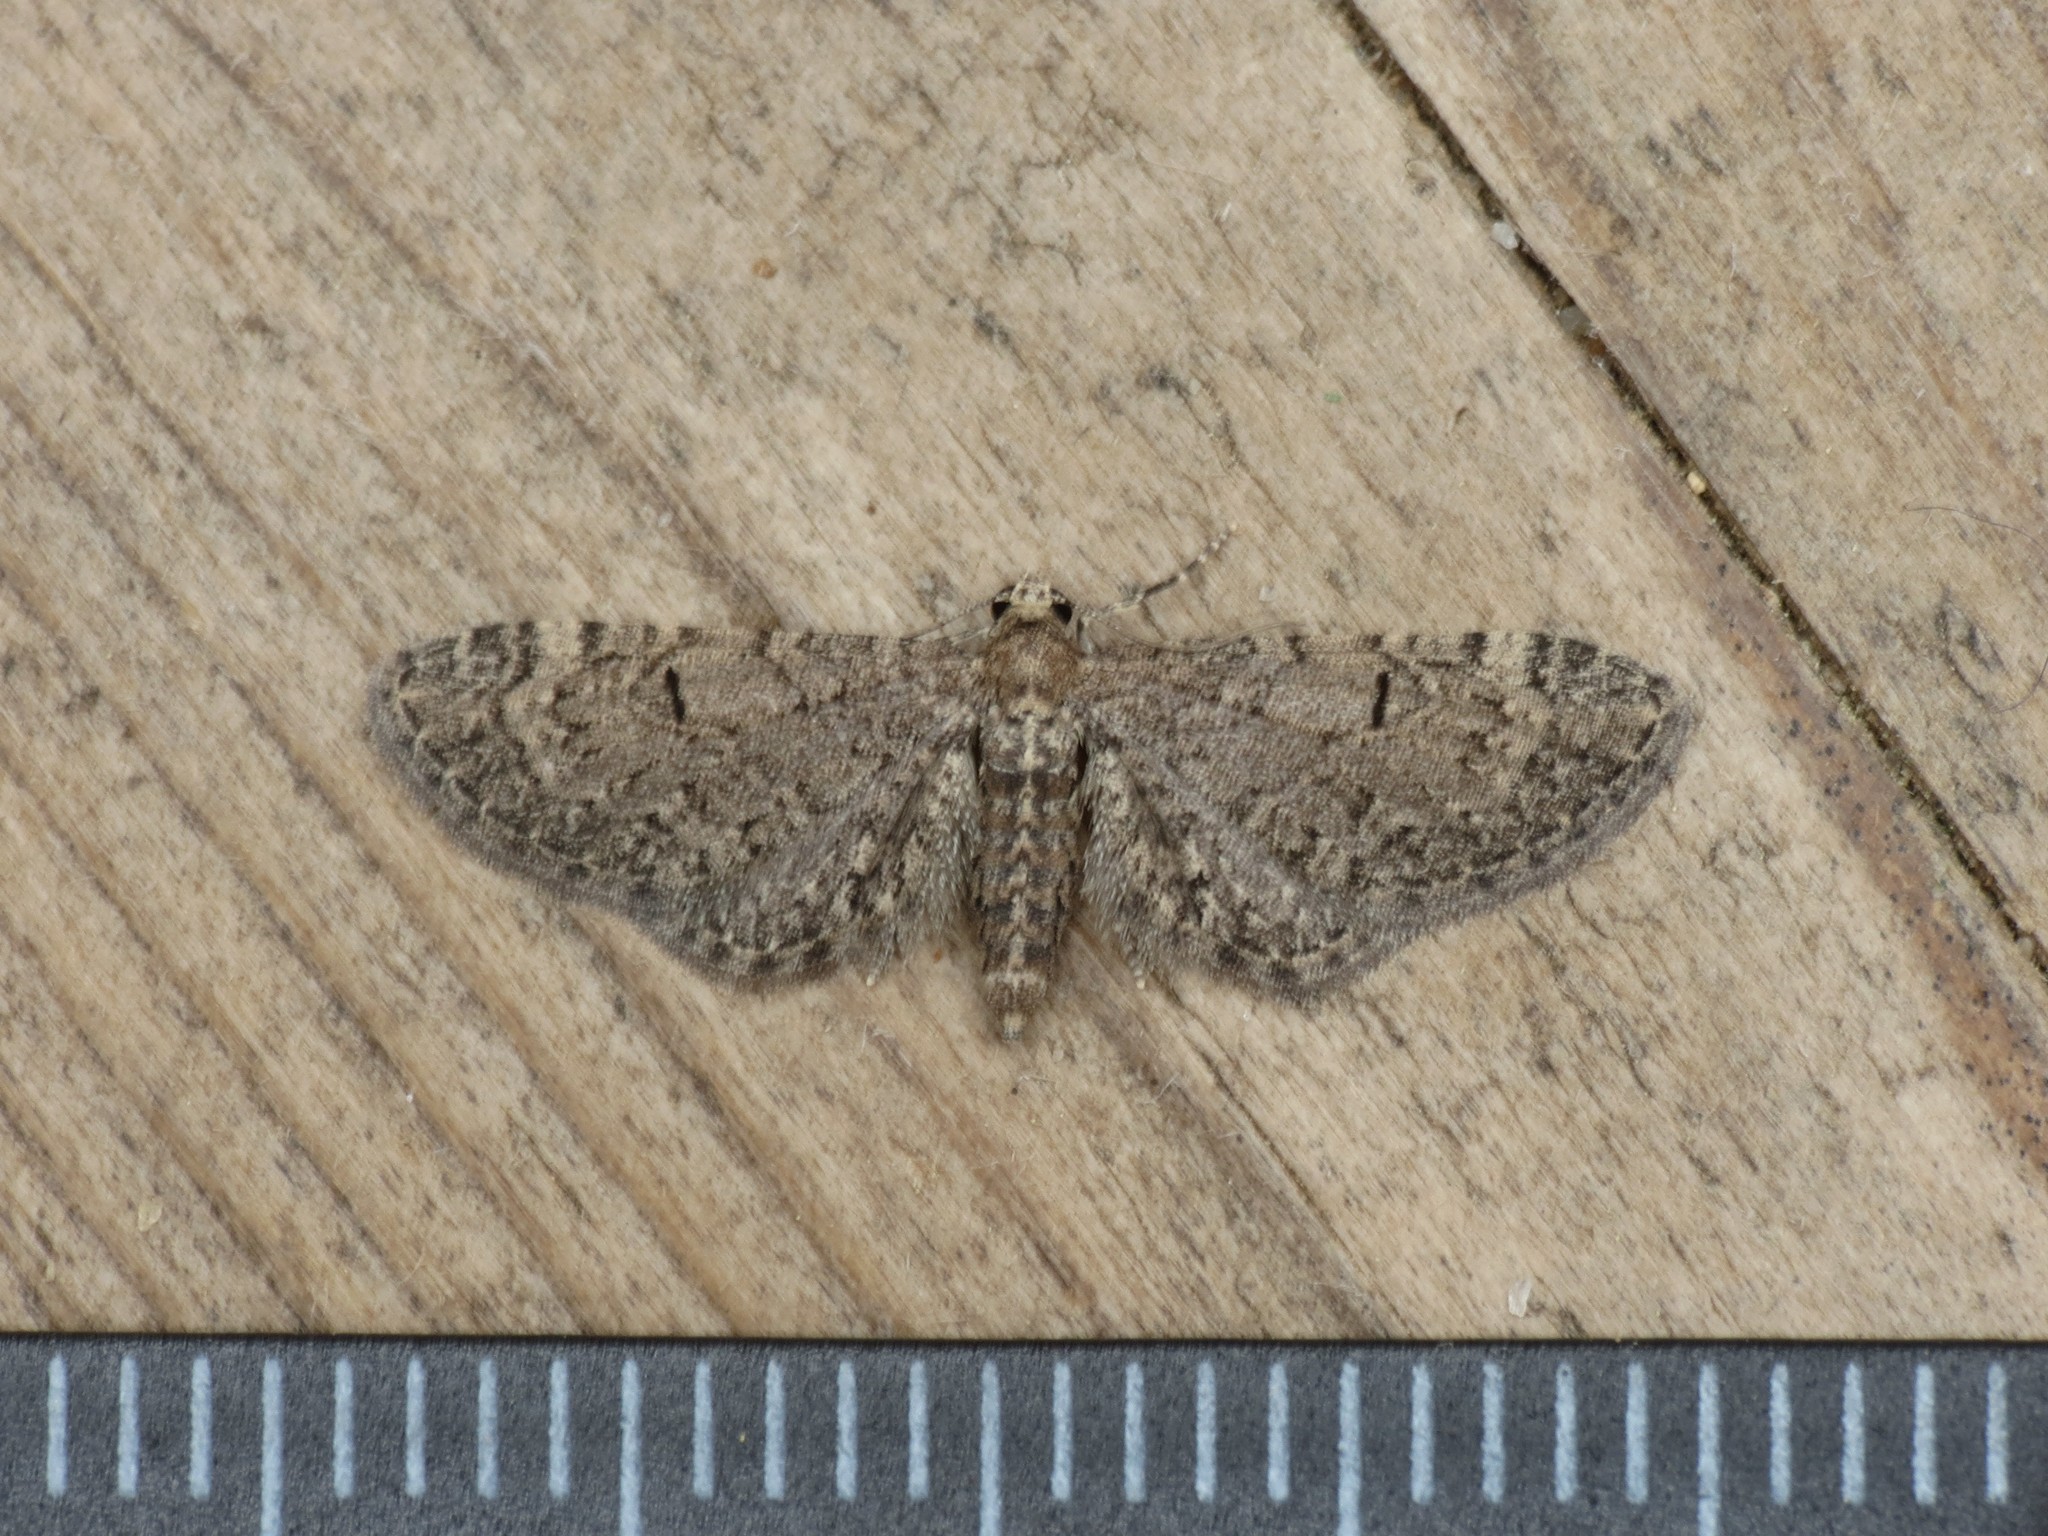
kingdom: Animalia
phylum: Arthropoda
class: Insecta
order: Lepidoptera
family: Geometridae
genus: Eupithecia
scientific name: Eupithecia ultimaria
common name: Channel islands pug
